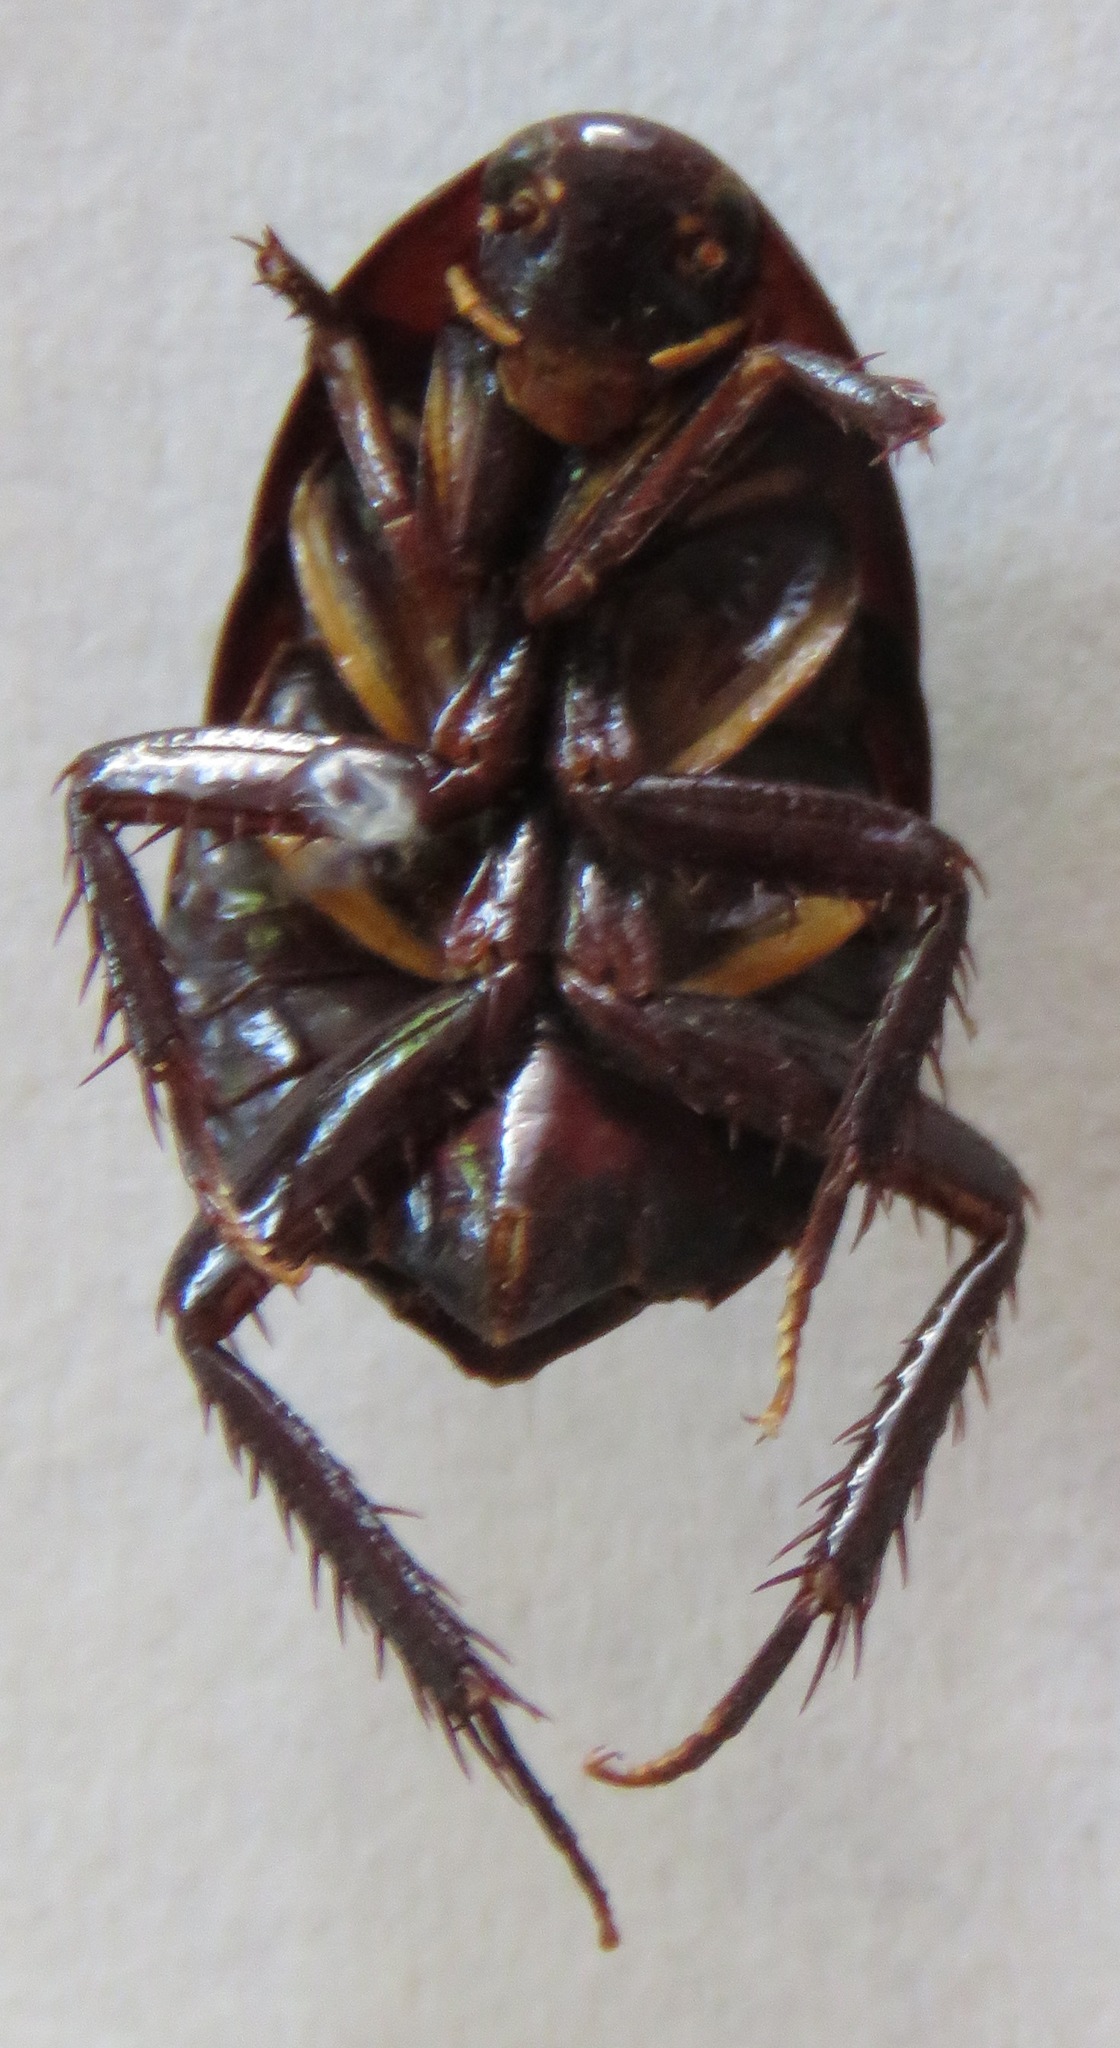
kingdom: Animalia
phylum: Arthropoda
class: Insecta
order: Blattodea
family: Lamproblattidae
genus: Lamproblatta
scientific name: Lamproblatta albipalpus
